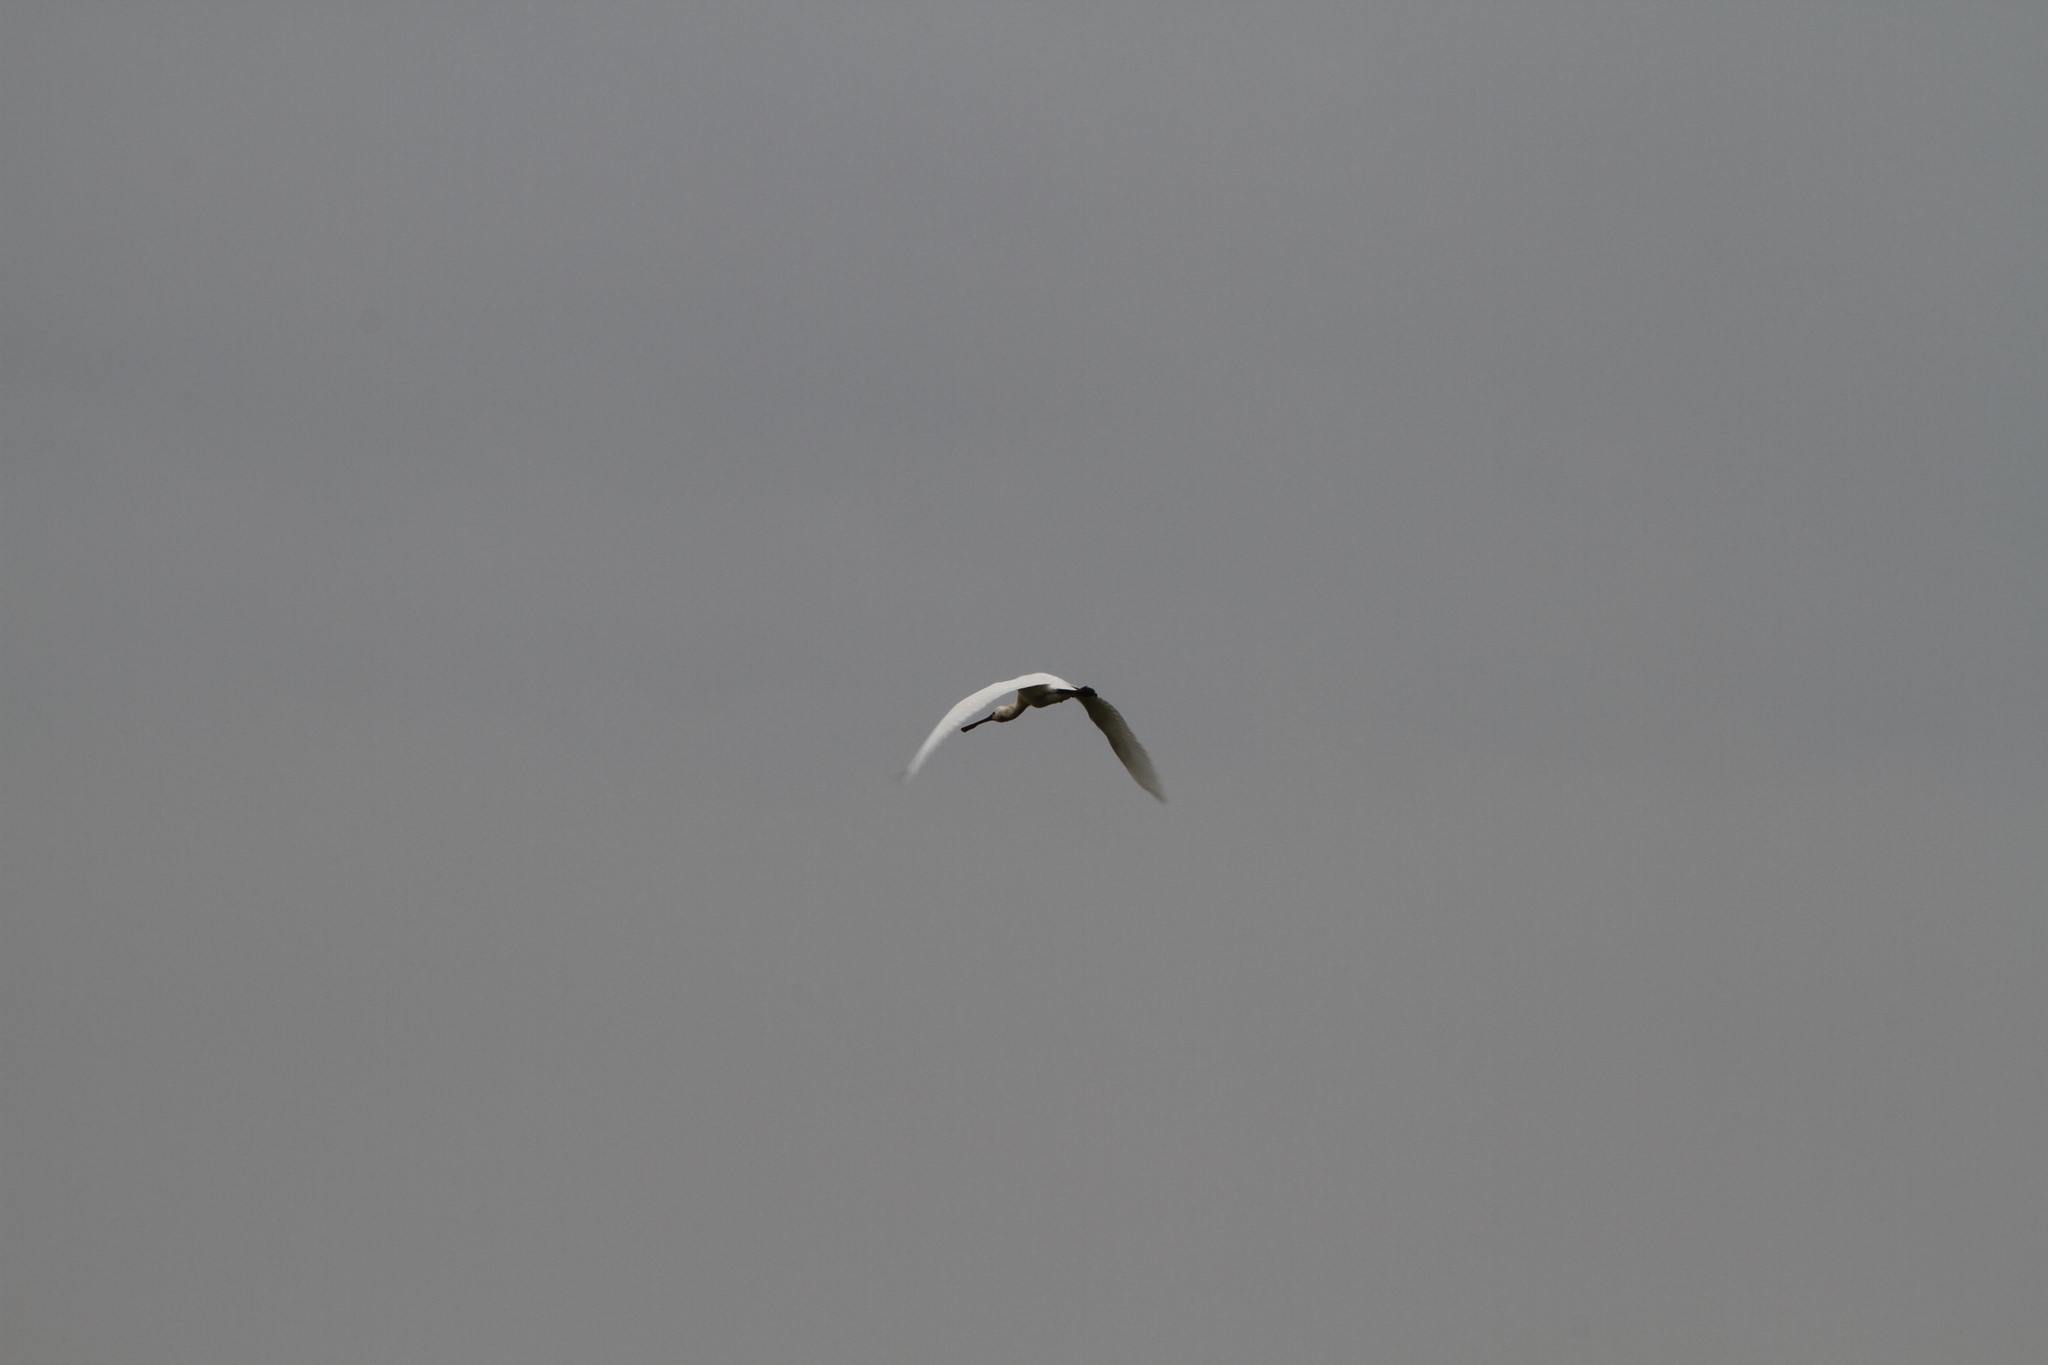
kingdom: Animalia
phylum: Chordata
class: Aves
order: Pelecaniformes
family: Threskiornithidae
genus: Platalea
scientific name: Platalea leucorodia
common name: Eurasian spoonbill
